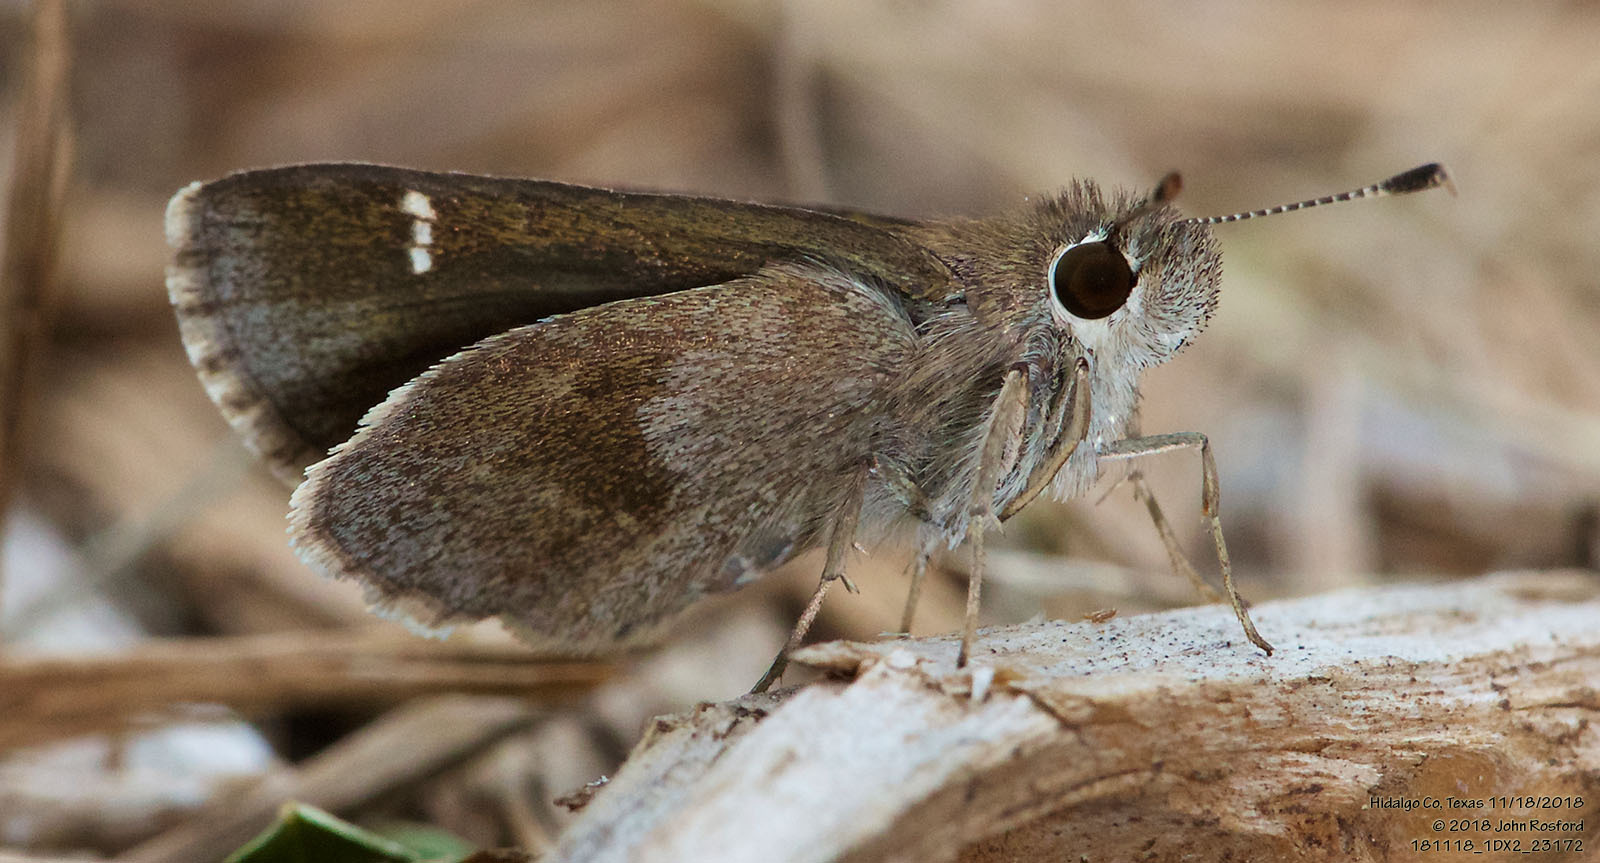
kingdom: Animalia
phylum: Arthropoda
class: Insecta
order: Lepidoptera
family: Hesperiidae
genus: Lerodea
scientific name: Lerodea arabus
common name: Violet-clouded skipper
